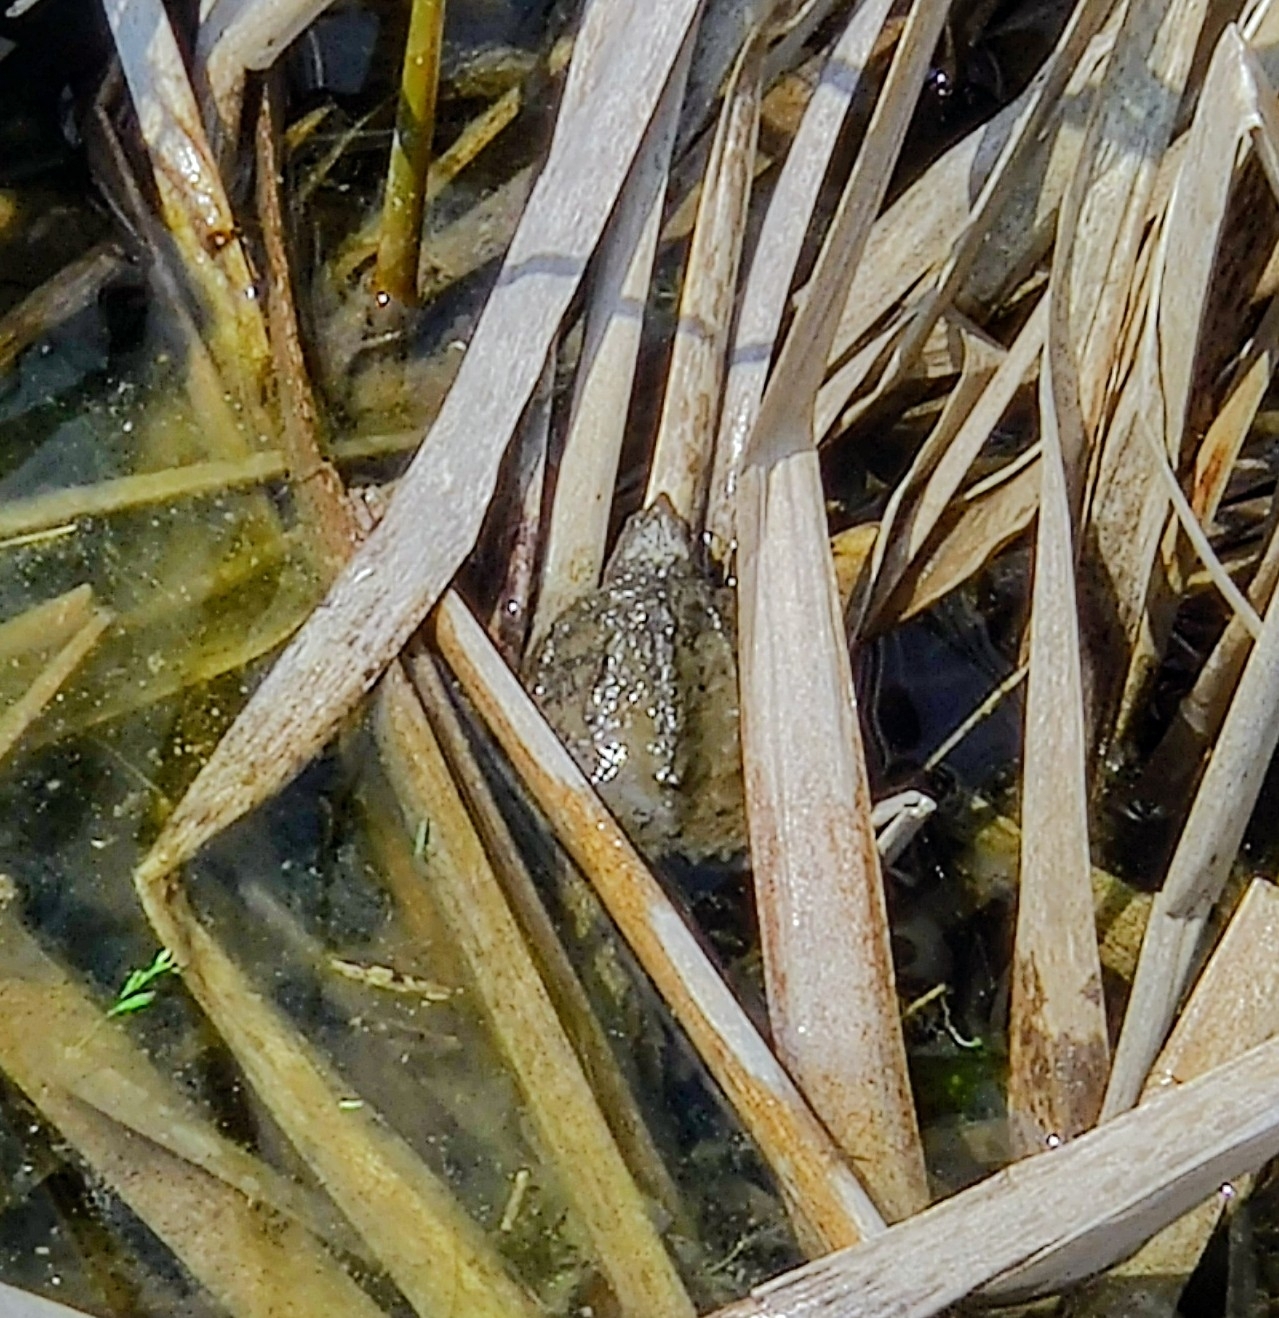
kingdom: Animalia
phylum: Chordata
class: Testudines
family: Chelydridae
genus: Chelydra
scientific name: Chelydra serpentina
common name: Common snapping turtle
